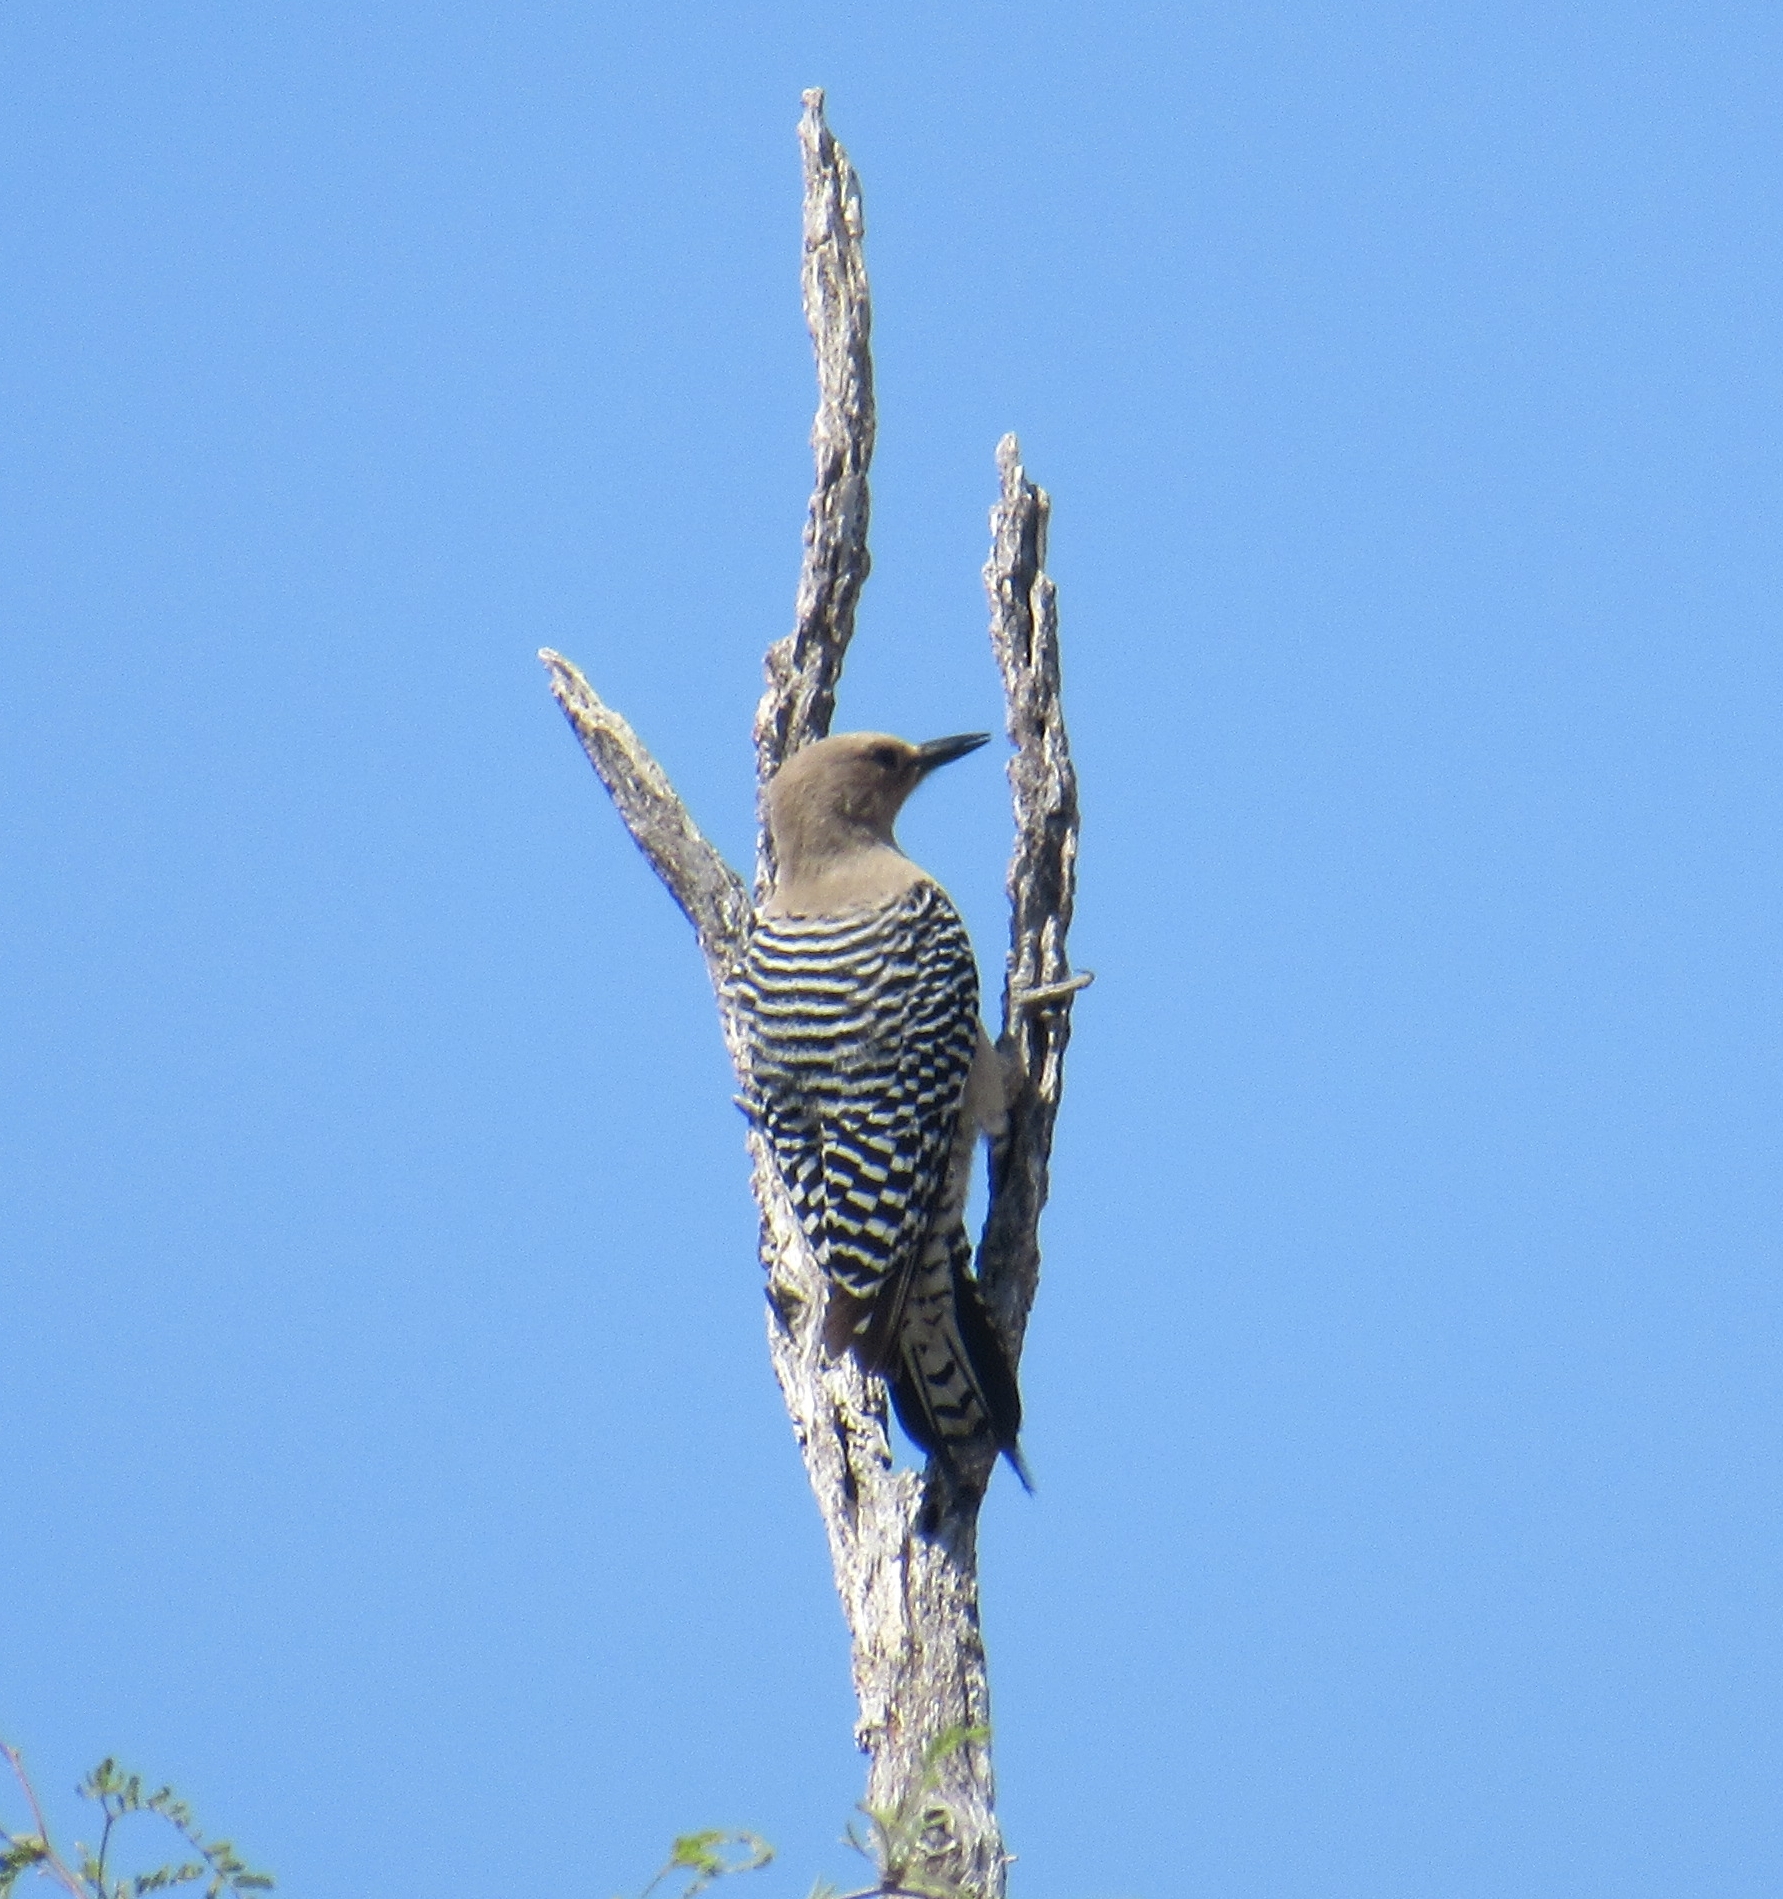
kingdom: Animalia
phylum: Chordata
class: Aves
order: Piciformes
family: Picidae
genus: Melanerpes
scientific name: Melanerpes uropygialis
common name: Gila woodpecker
